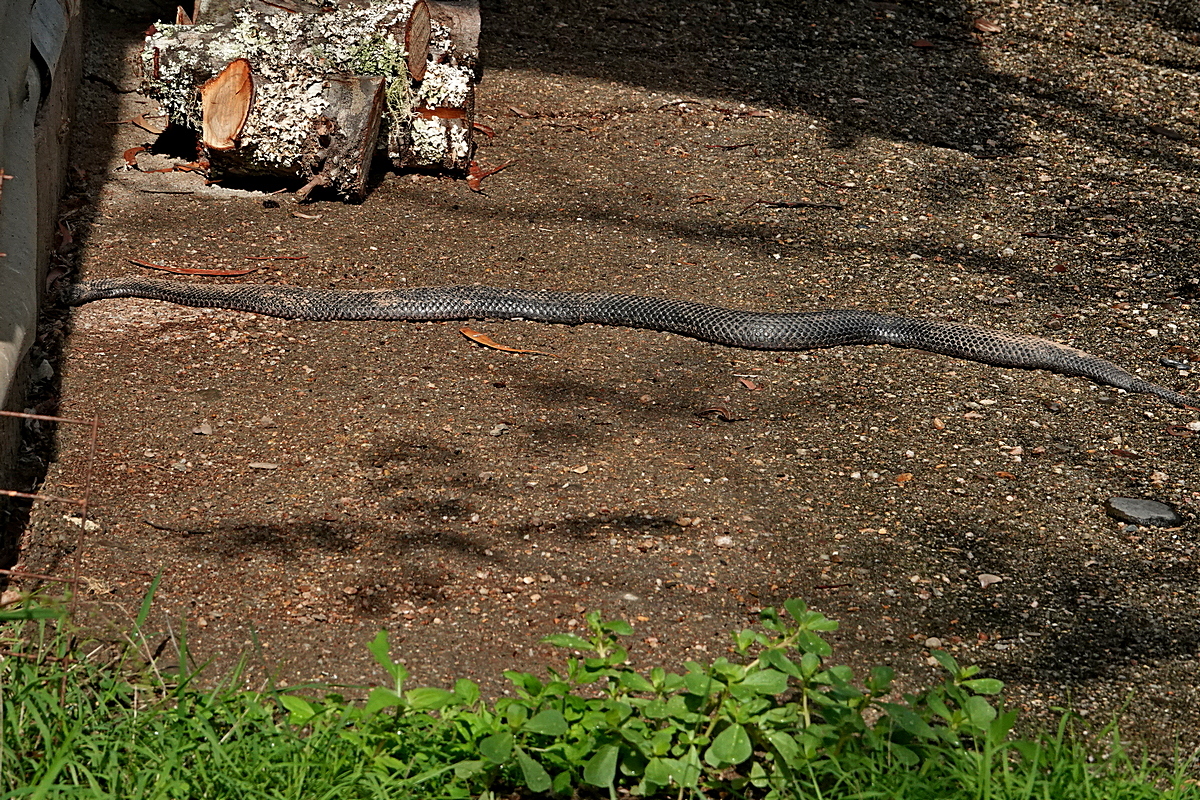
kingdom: Animalia
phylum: Chordata
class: Squamata
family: Elapidae
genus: Pseudonaja
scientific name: Pseudonaja textilis
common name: Eastern brown snake
